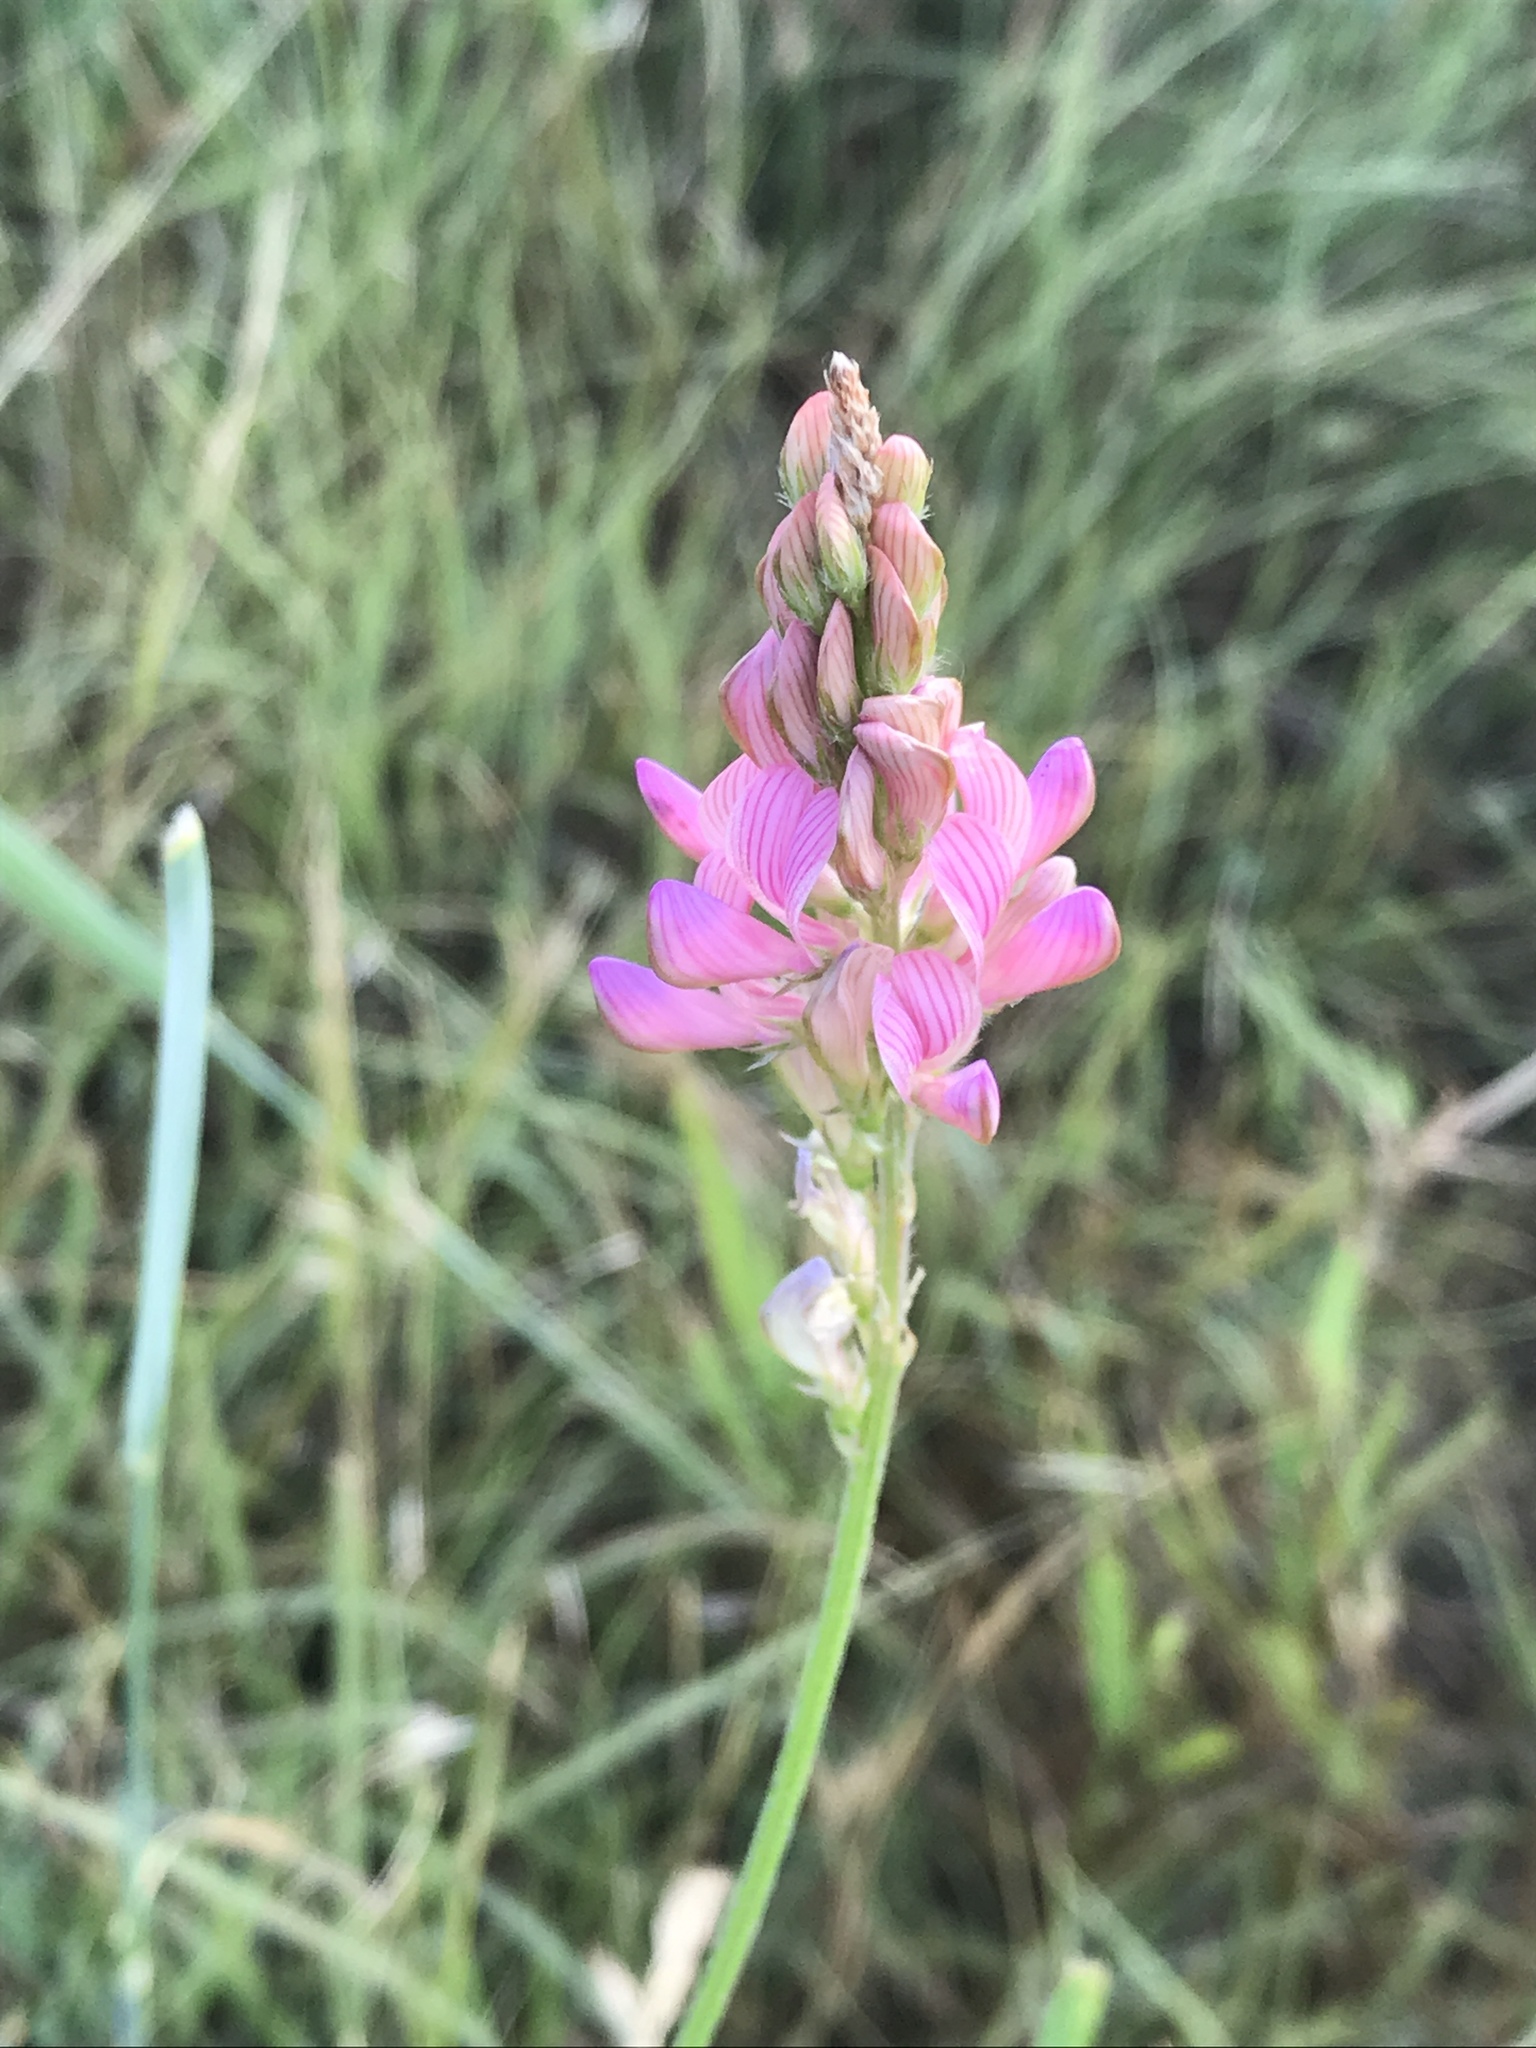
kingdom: Plantae
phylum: Tracheophyta
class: Magnoliopsida
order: Fabales
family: Fabaceae
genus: Onobrychis
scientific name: Onobrychis viciifolia
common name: Sainfoin
